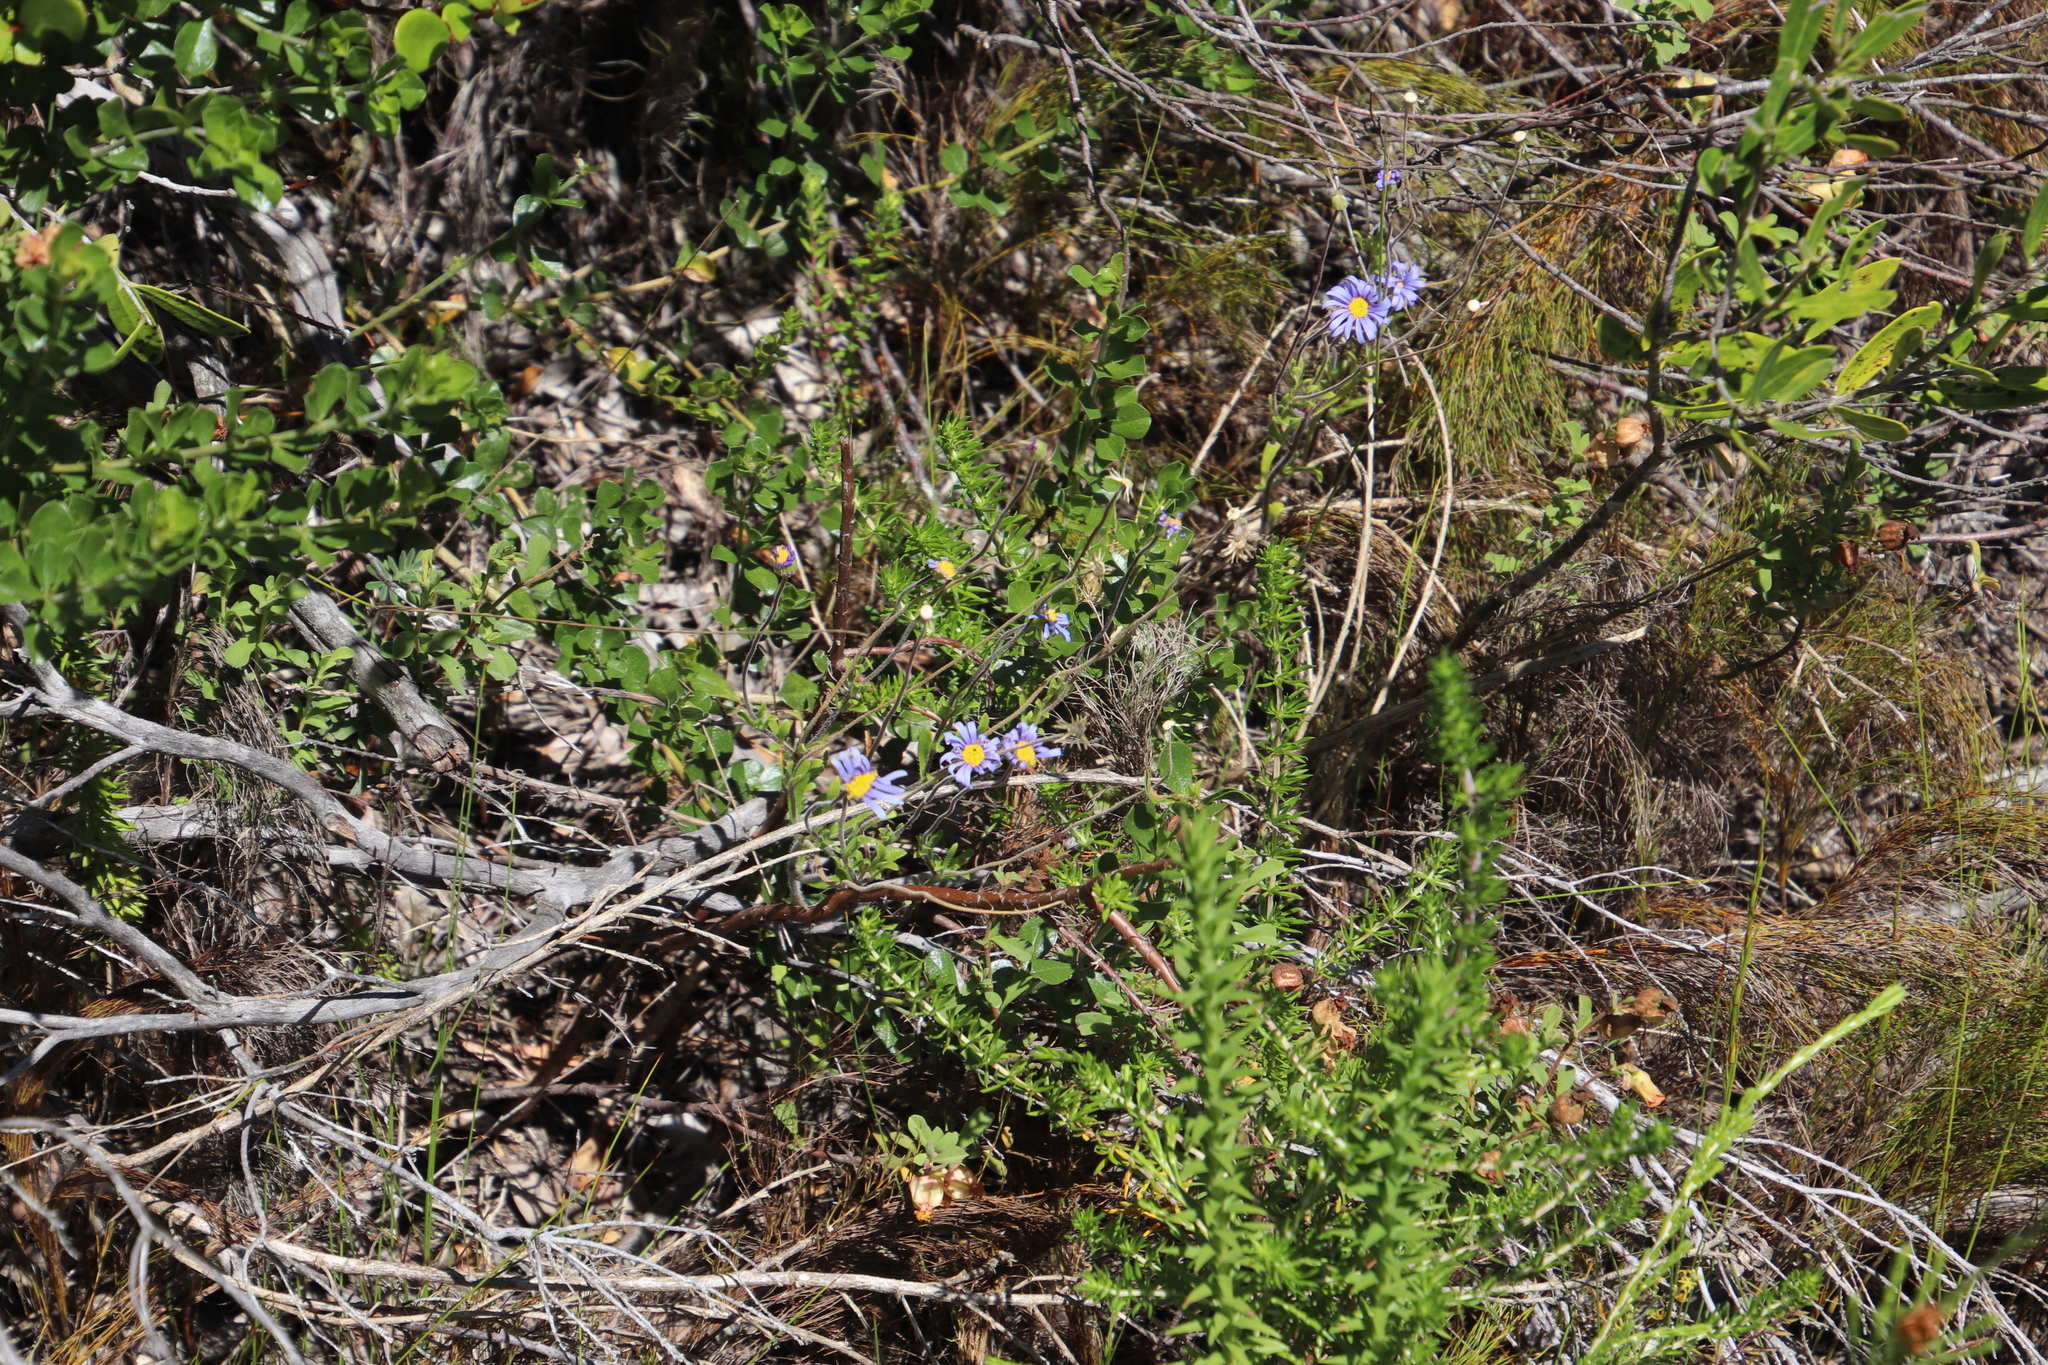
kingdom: Plantae
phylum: Tracheophyta
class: Magnoliopsida
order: Asterales
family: Asteraceae
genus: Felicia
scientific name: Felicia amoena
